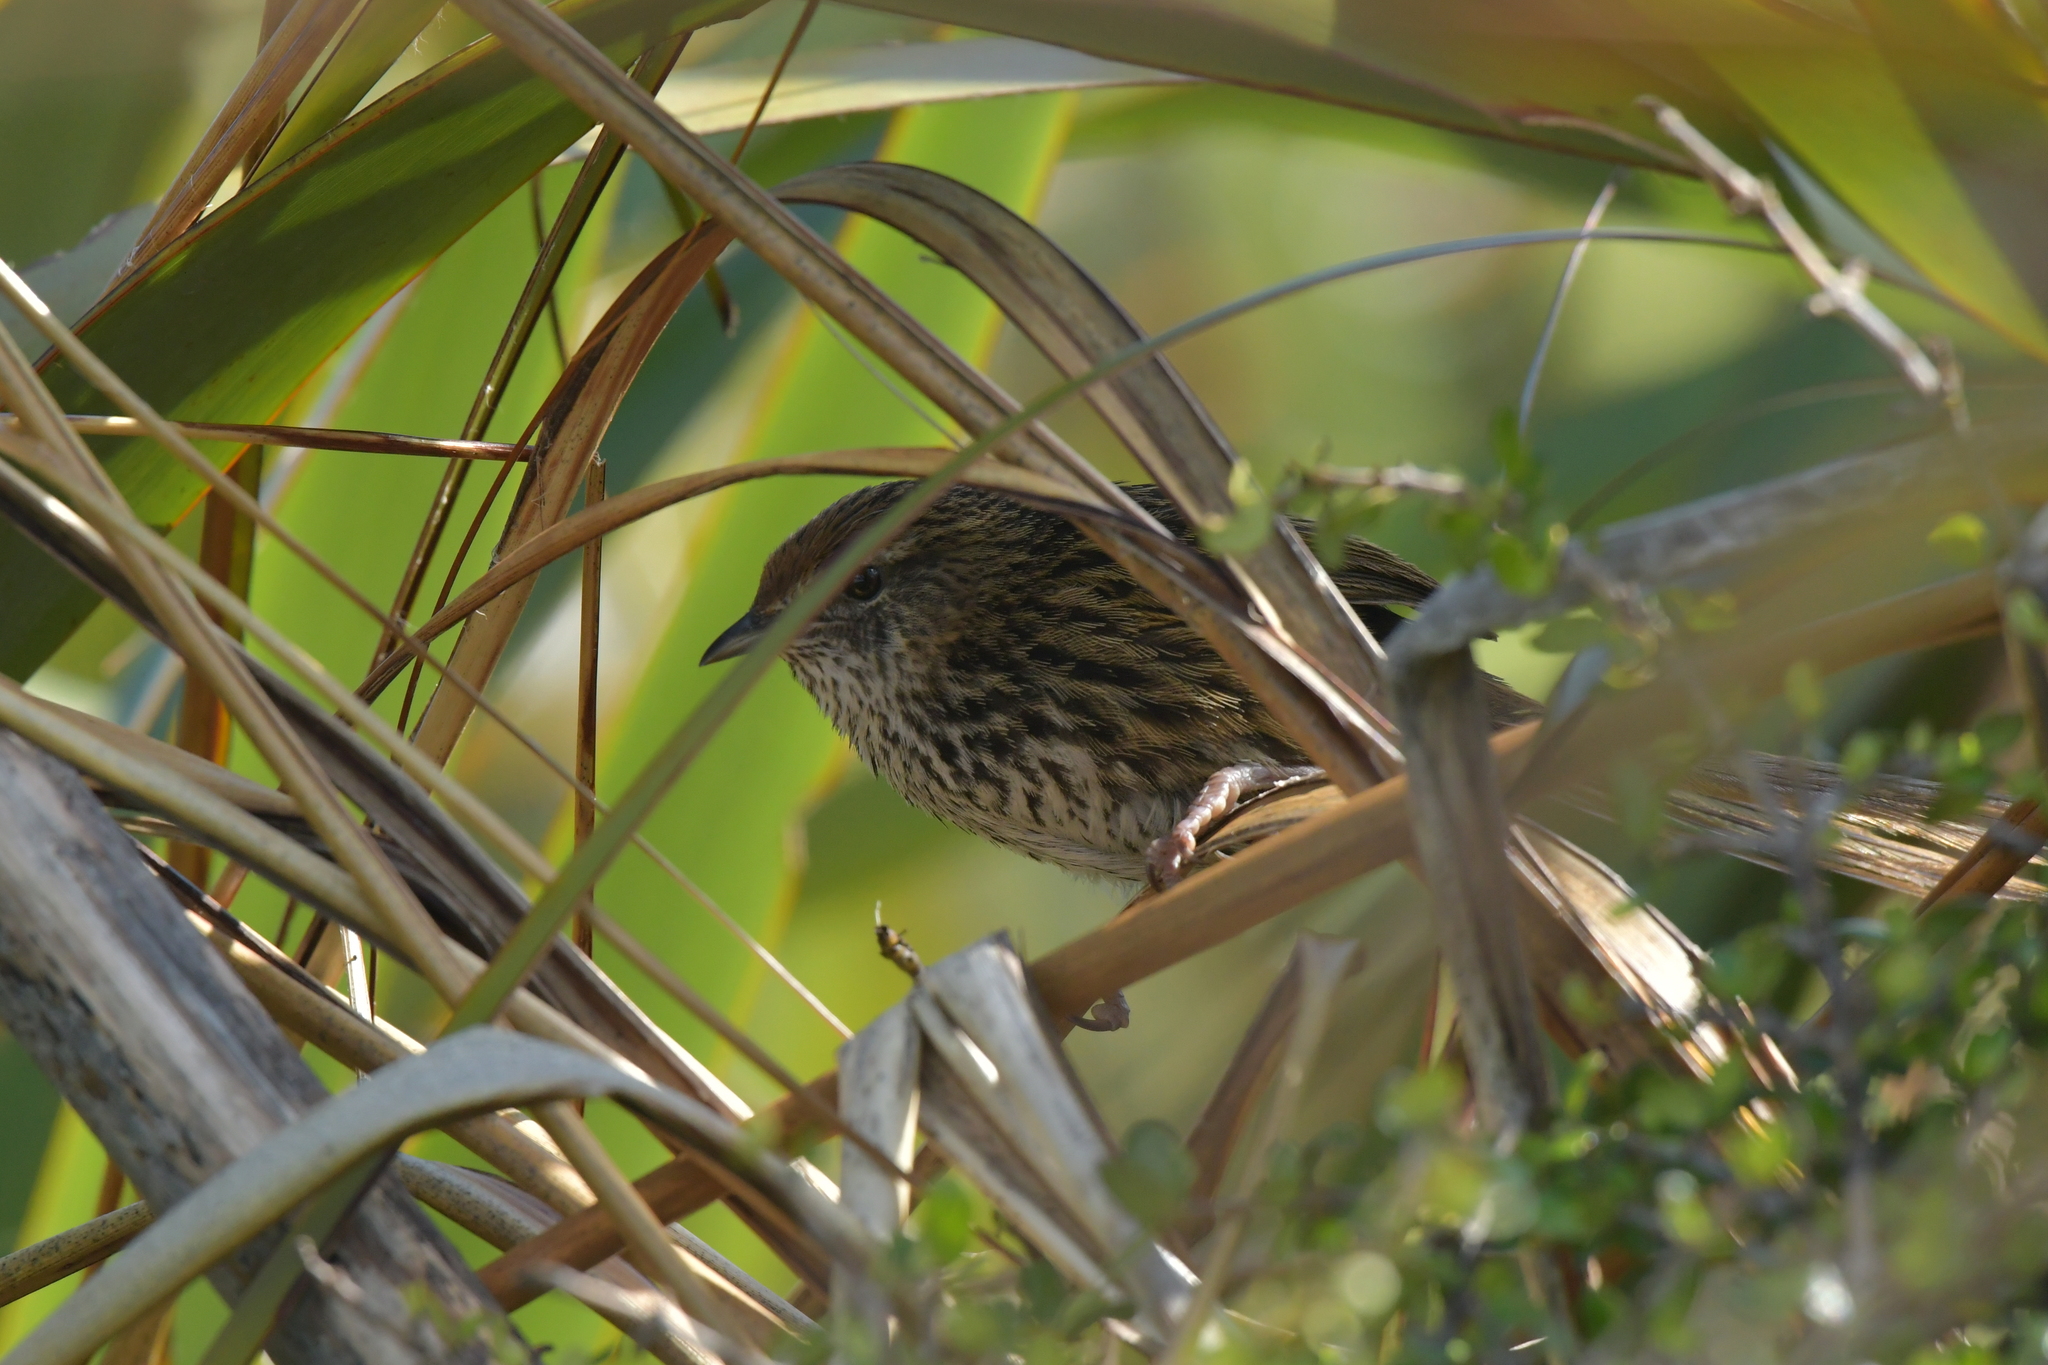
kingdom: Animalia
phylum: Chordata
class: Aves
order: Passeriformes
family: Locustellidae
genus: Megalurus
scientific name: Megalurus punctatus
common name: New zealand fernbird
